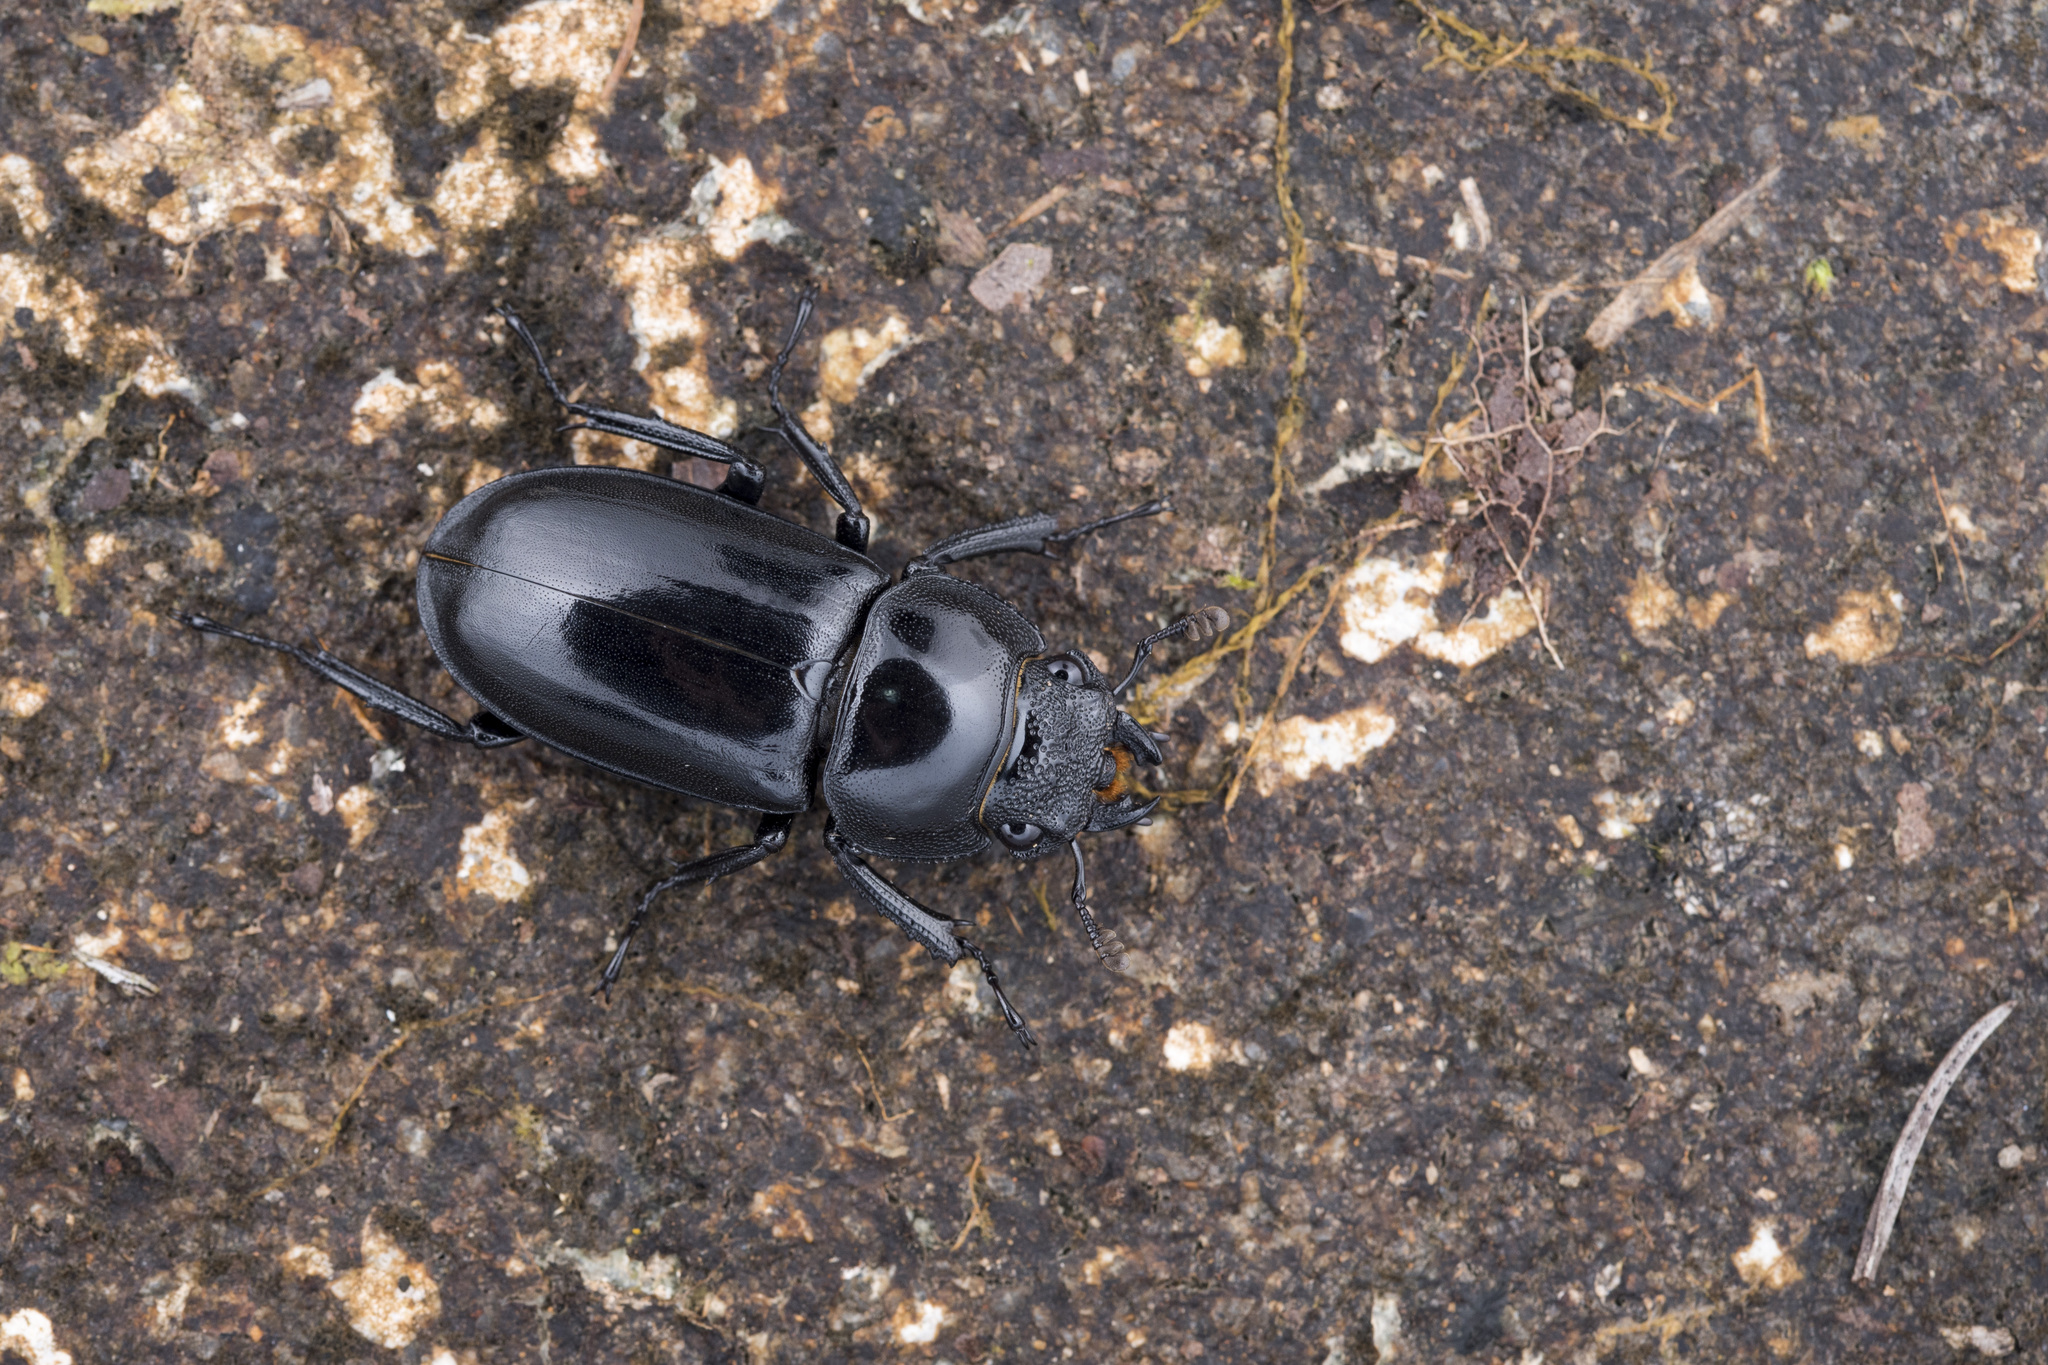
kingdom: Animalia
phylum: Arthropoda
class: Insecta
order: Coleoptera
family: Lucanidae
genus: Rhaetulus
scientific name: Rhaetulus crenatus
